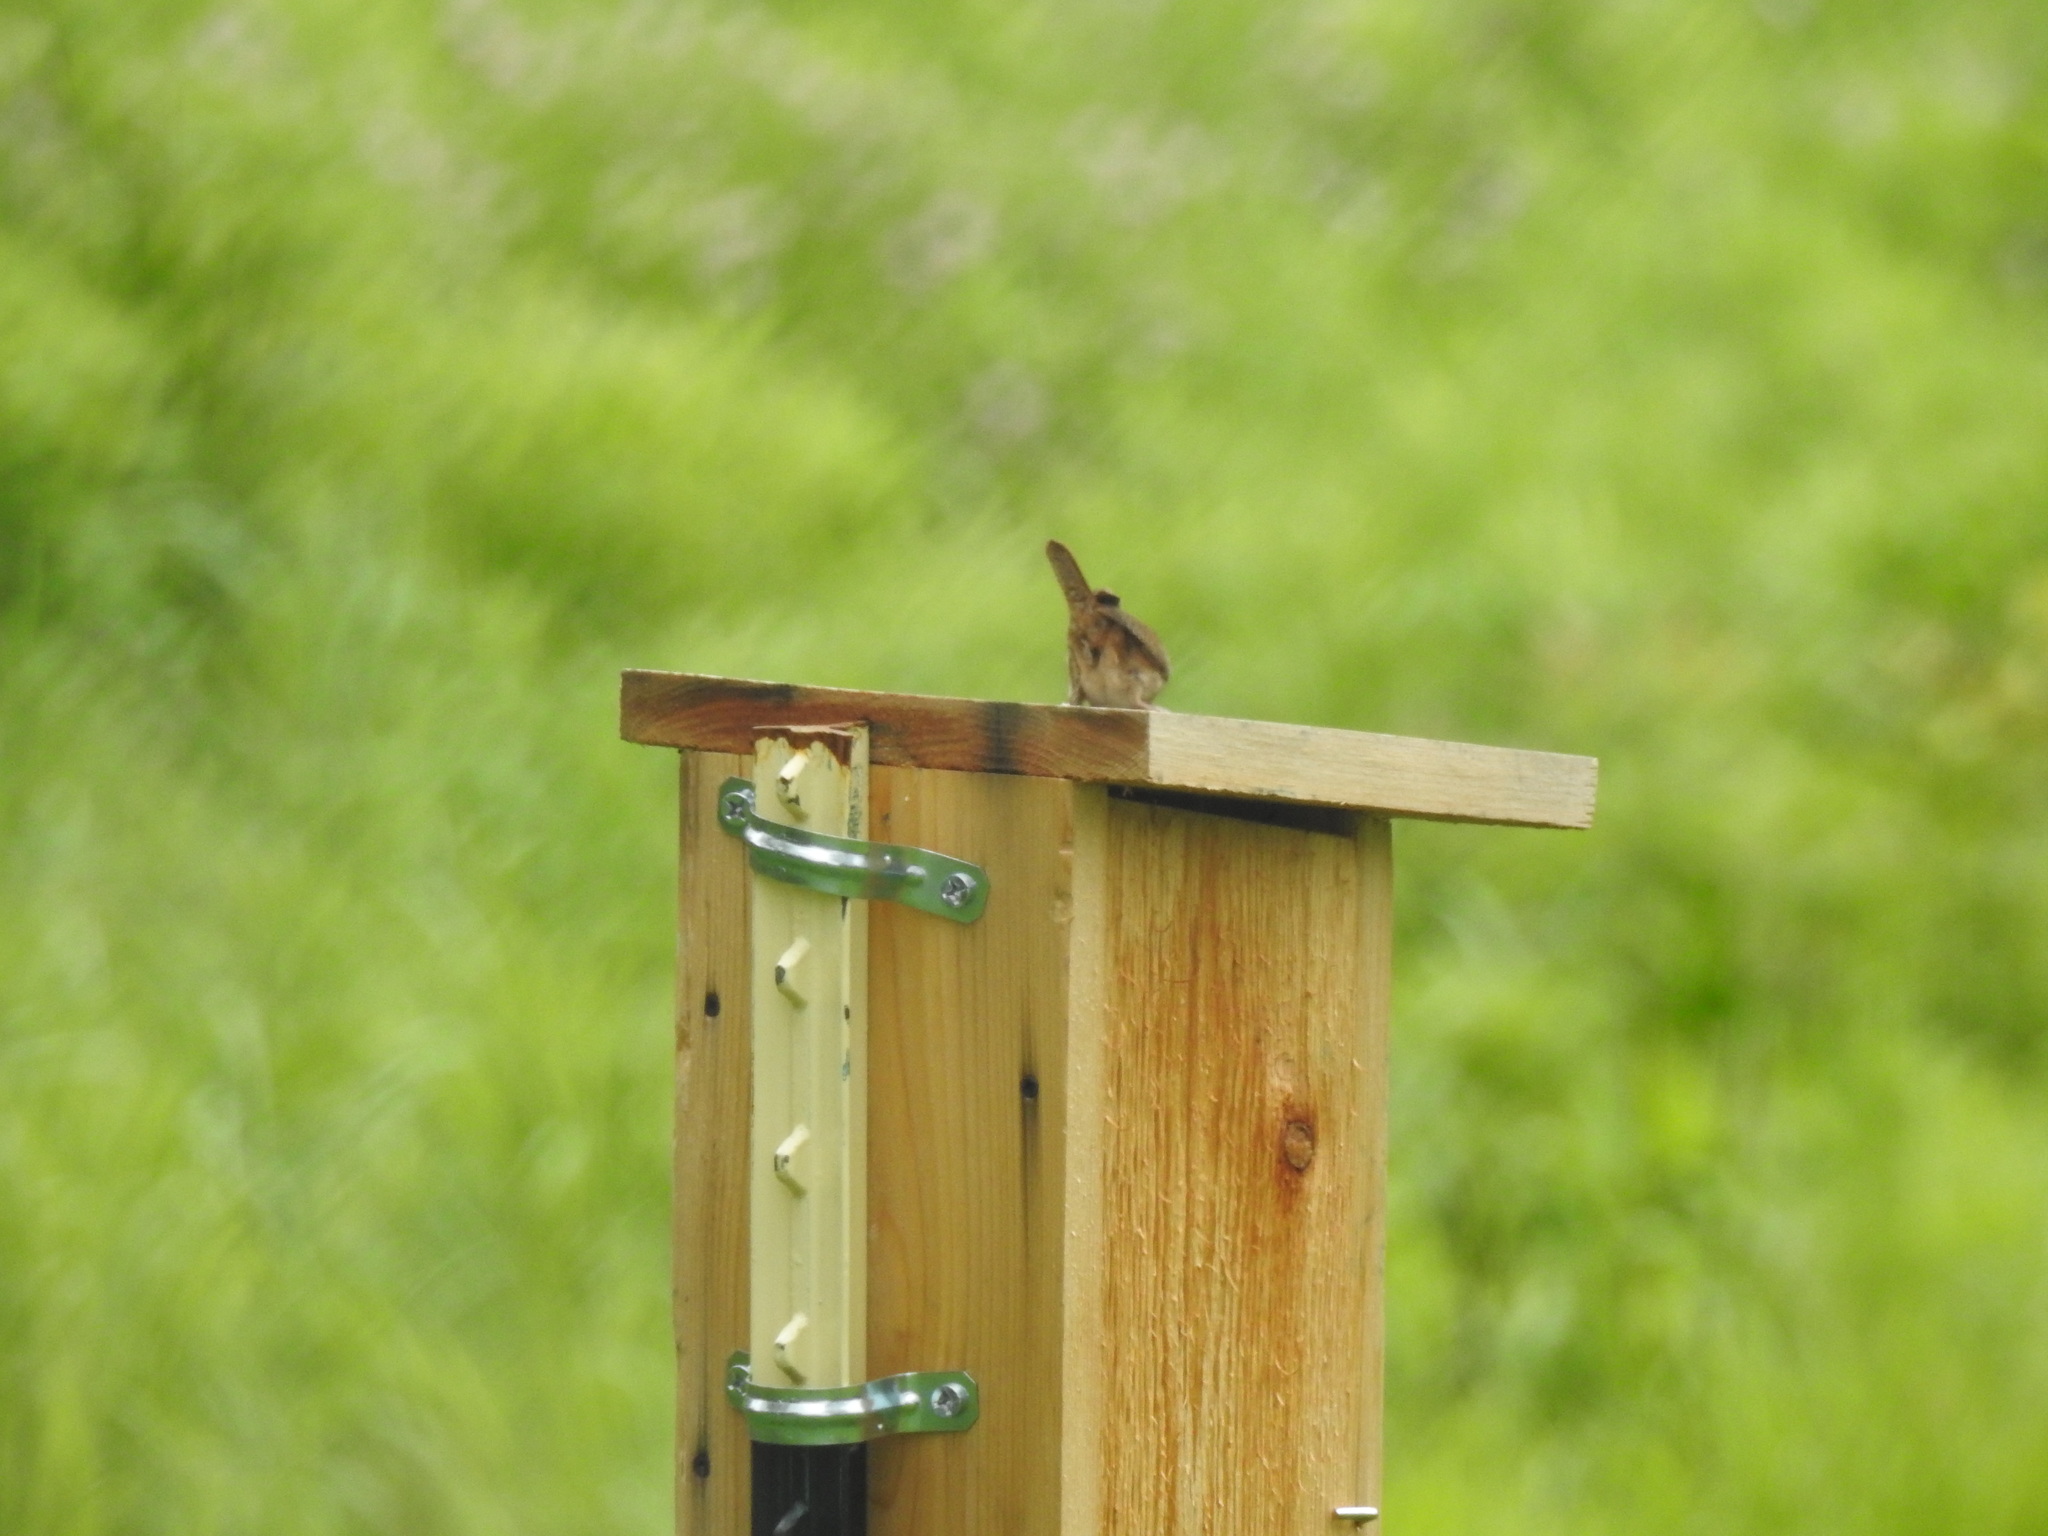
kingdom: Animalia
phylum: Chordata
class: Aves
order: Passeriformes
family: Troglodytidae
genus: Troglodytes
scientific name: Troglodytes aedon
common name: House wren
